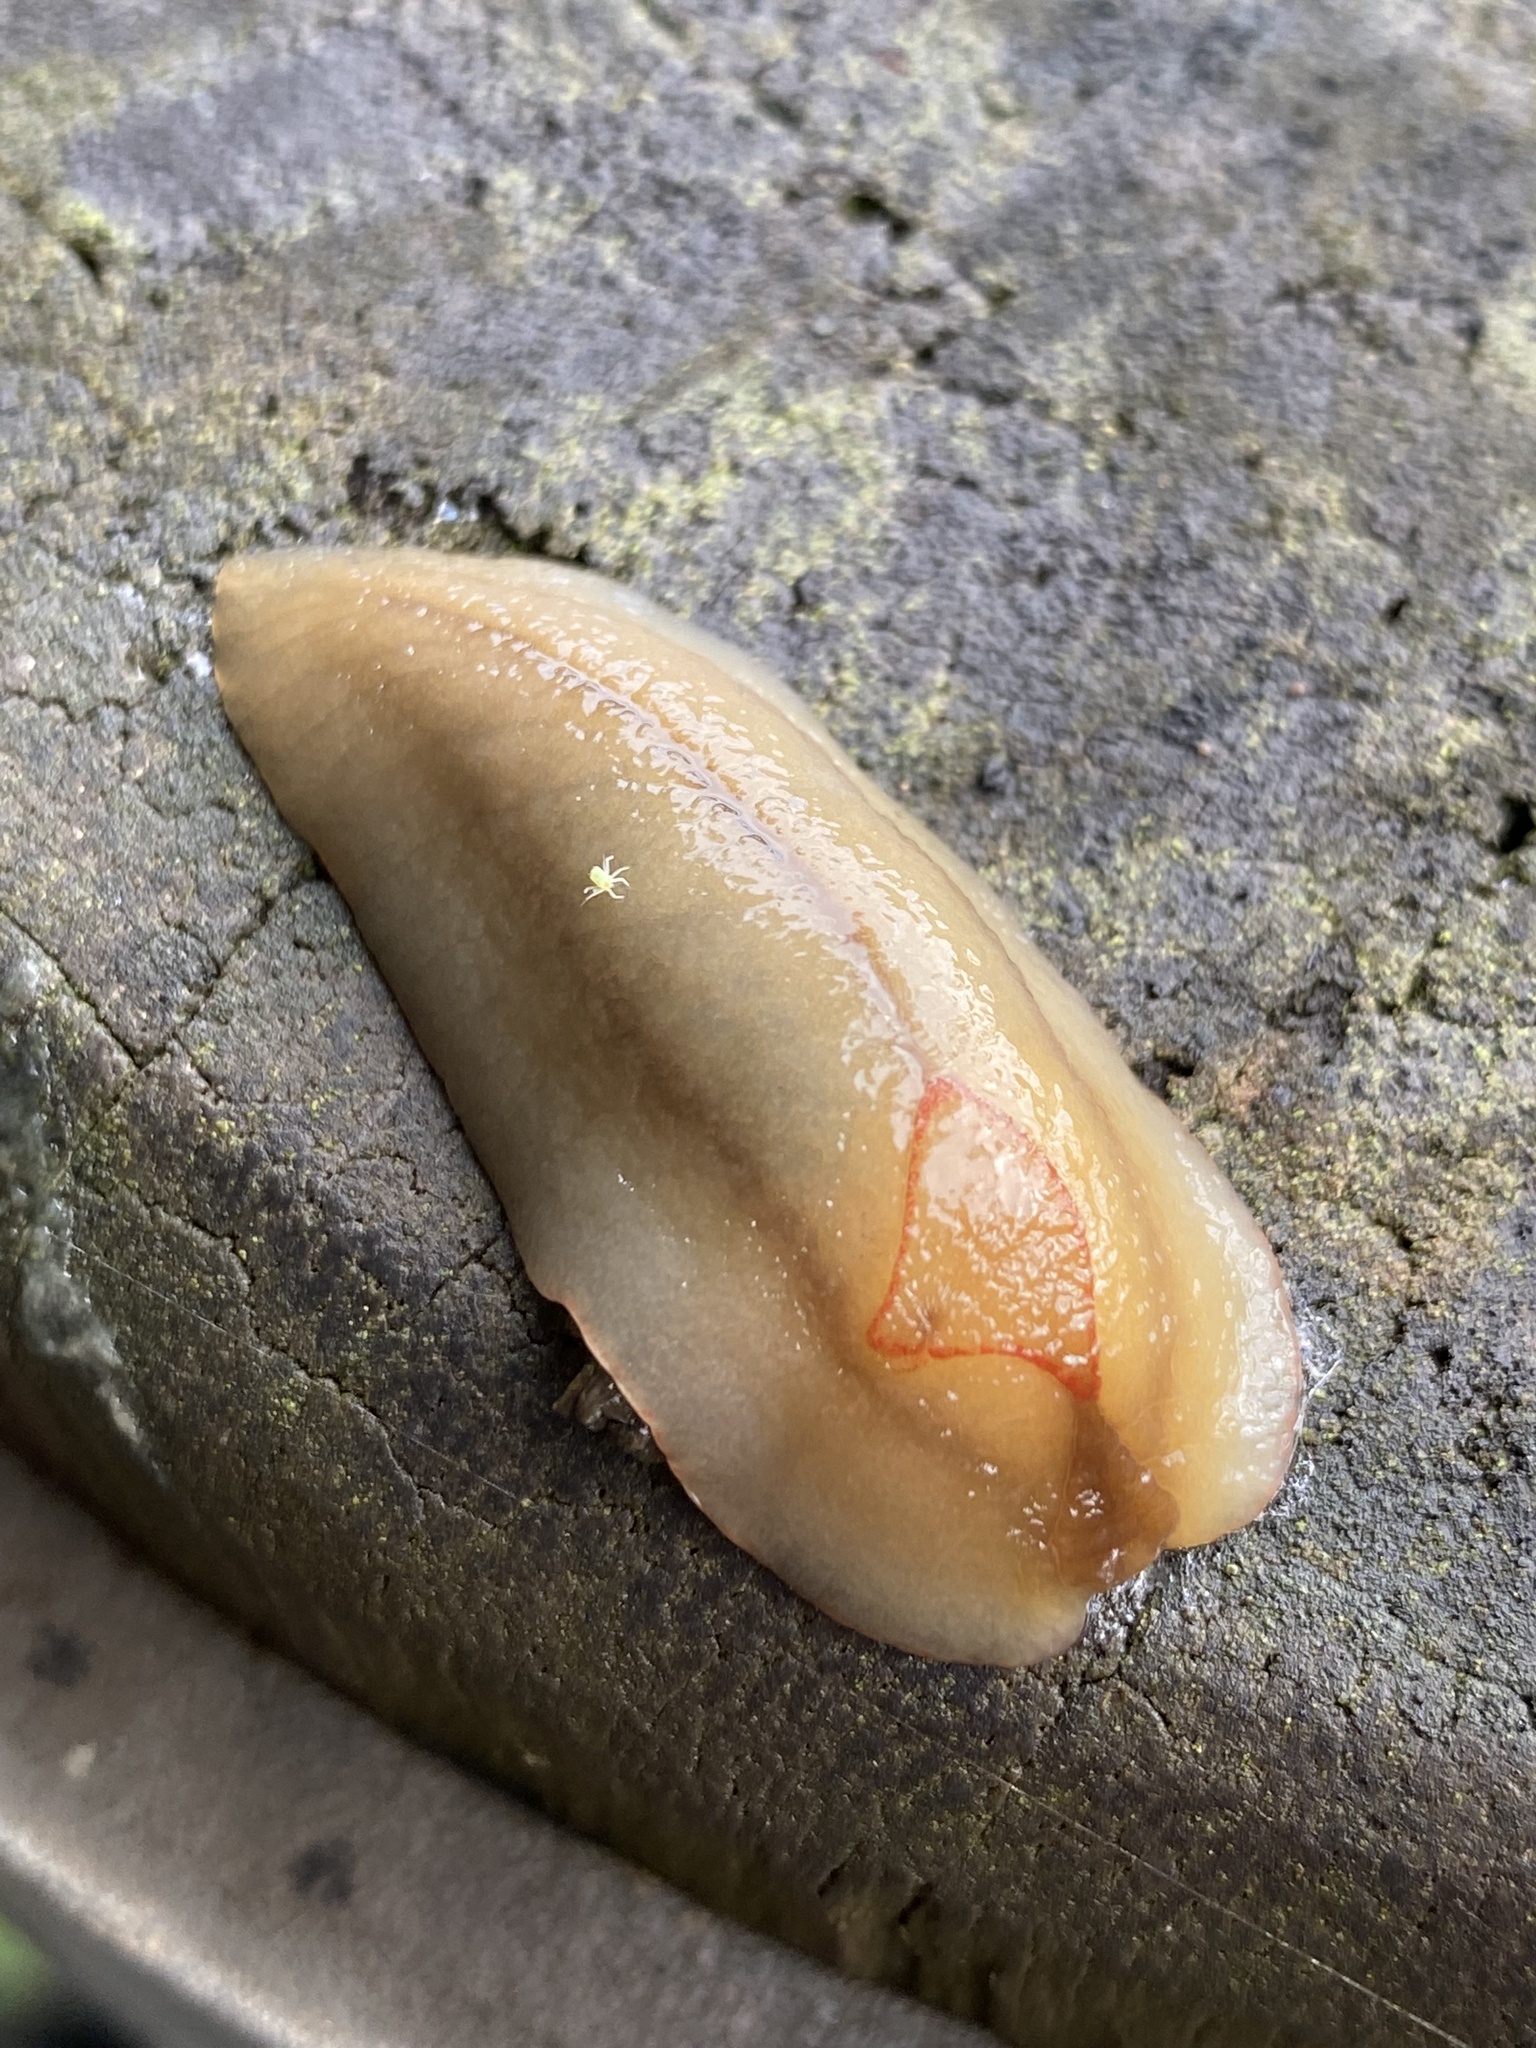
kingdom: Animalia
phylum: Mollusca
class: Gastropoda
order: Stylommatophora
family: Athoracophoridae
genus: Triboniophorus
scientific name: Triboniophorus graeffei
